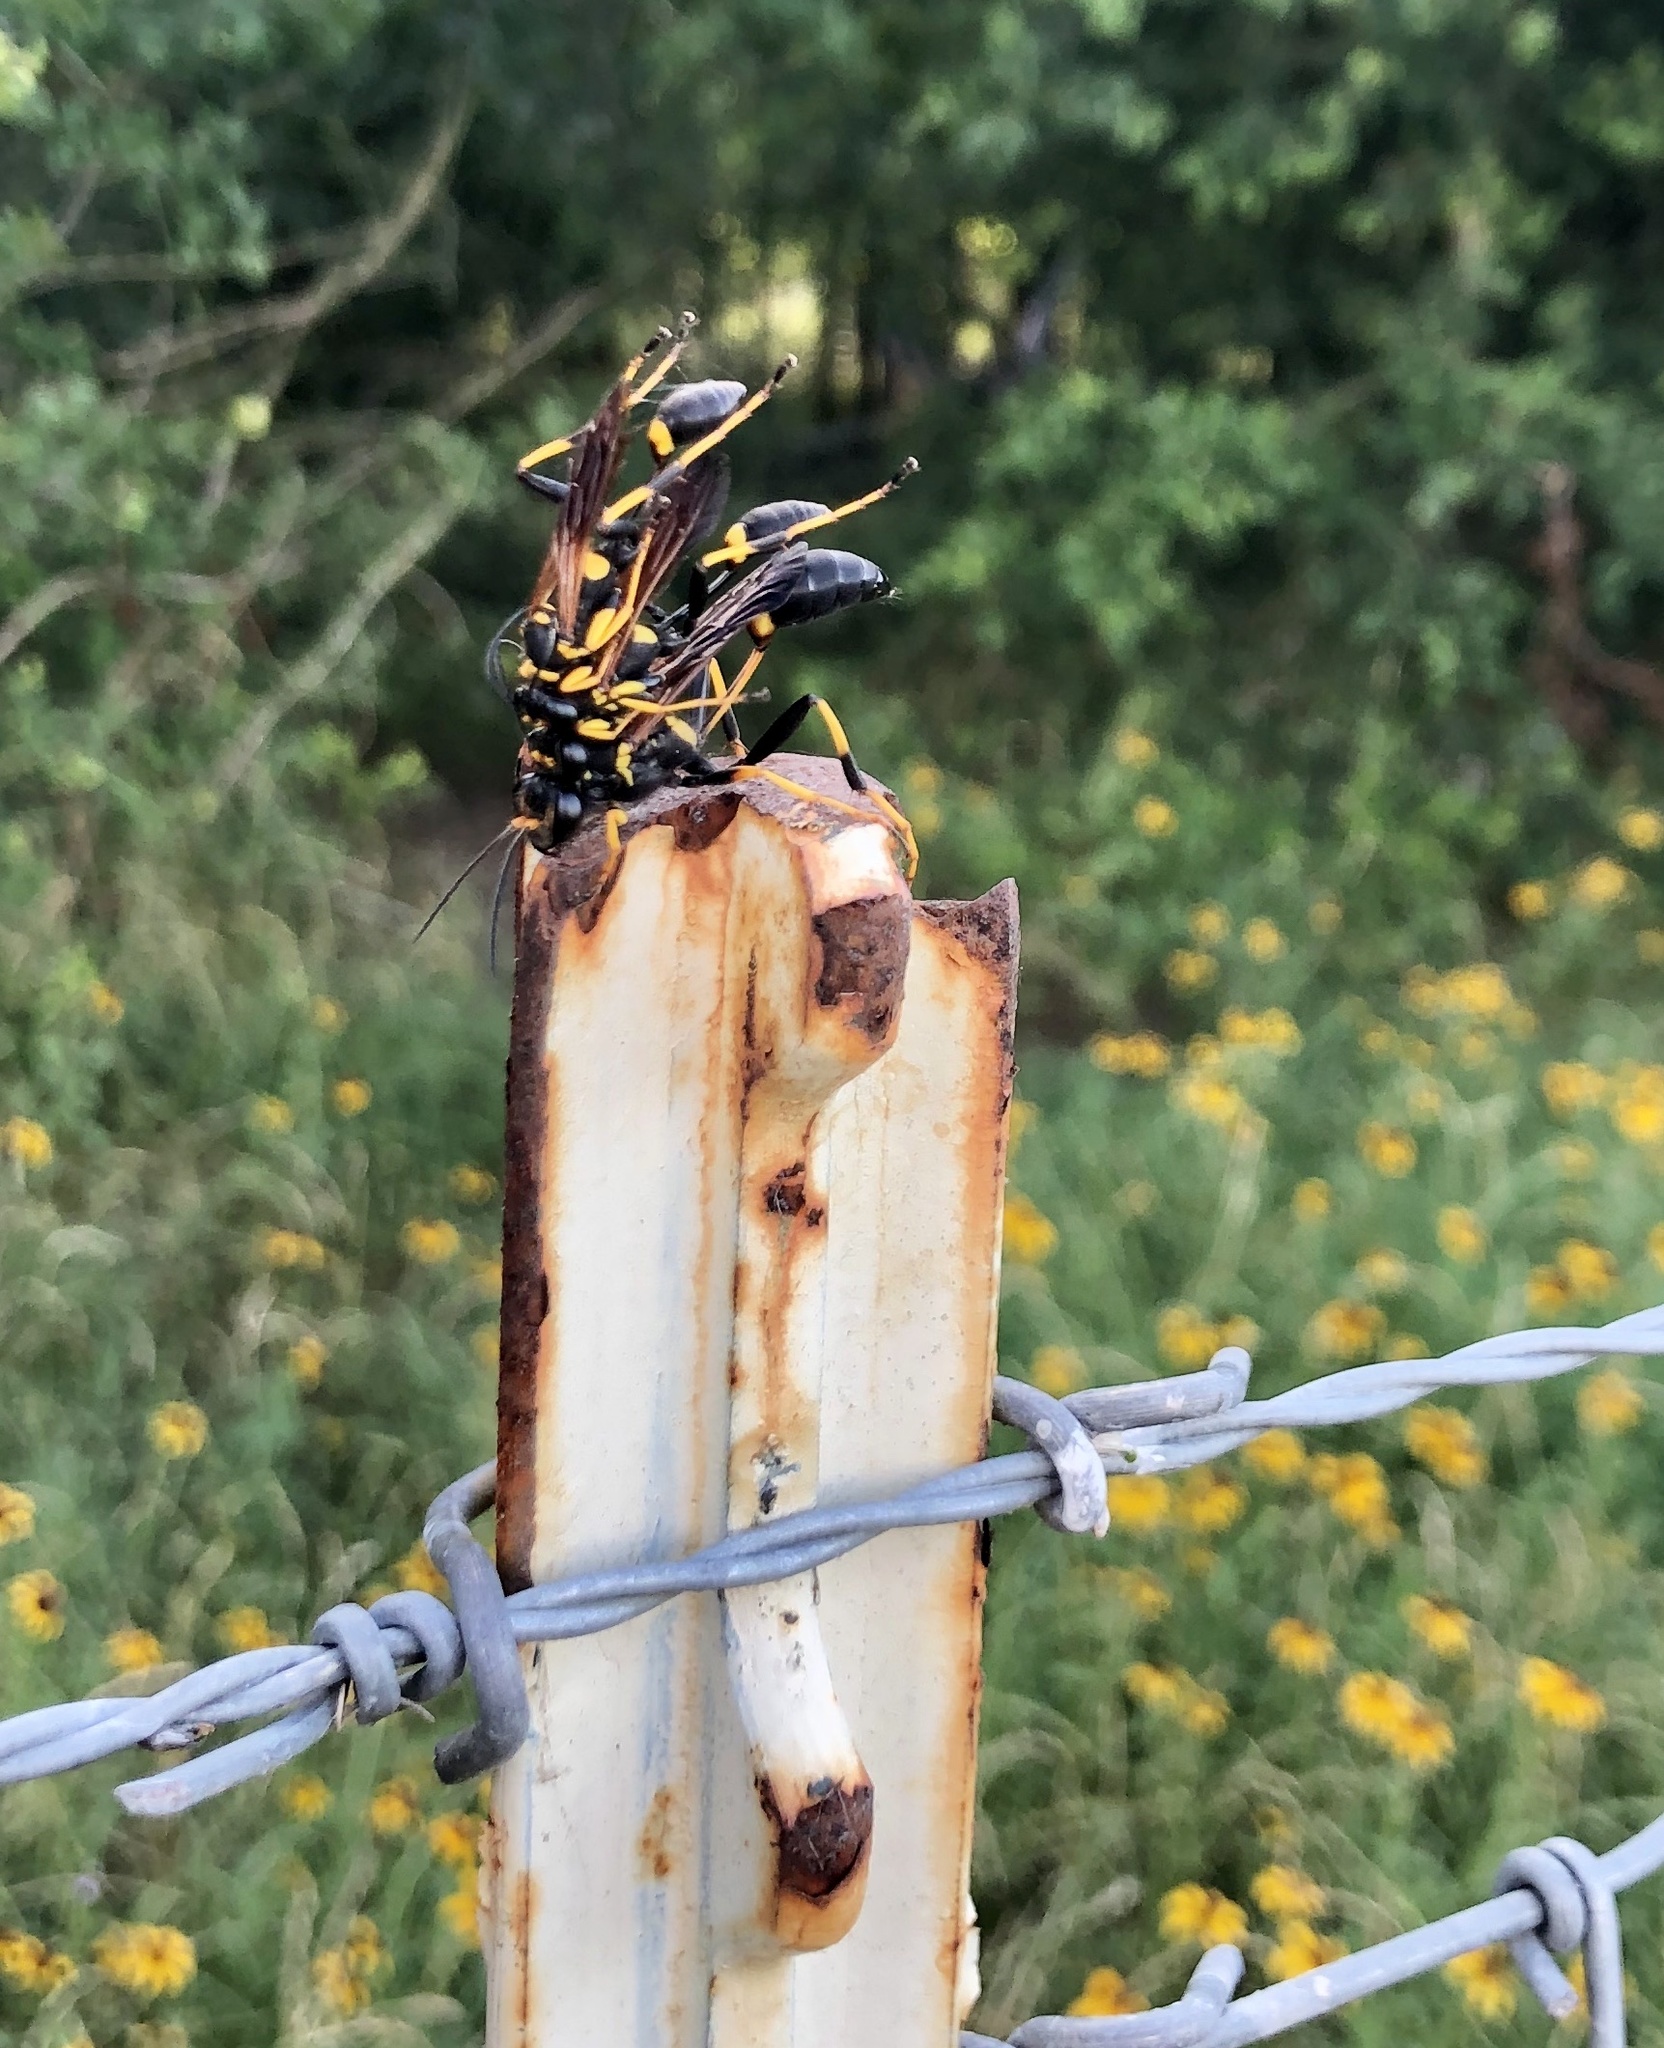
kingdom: Animalia
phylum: Arthropoda
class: Insecta
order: Hymenoptera
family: Sphecidae
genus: Sceliphron
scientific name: Sceliphron caementarium
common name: Mud dauber
